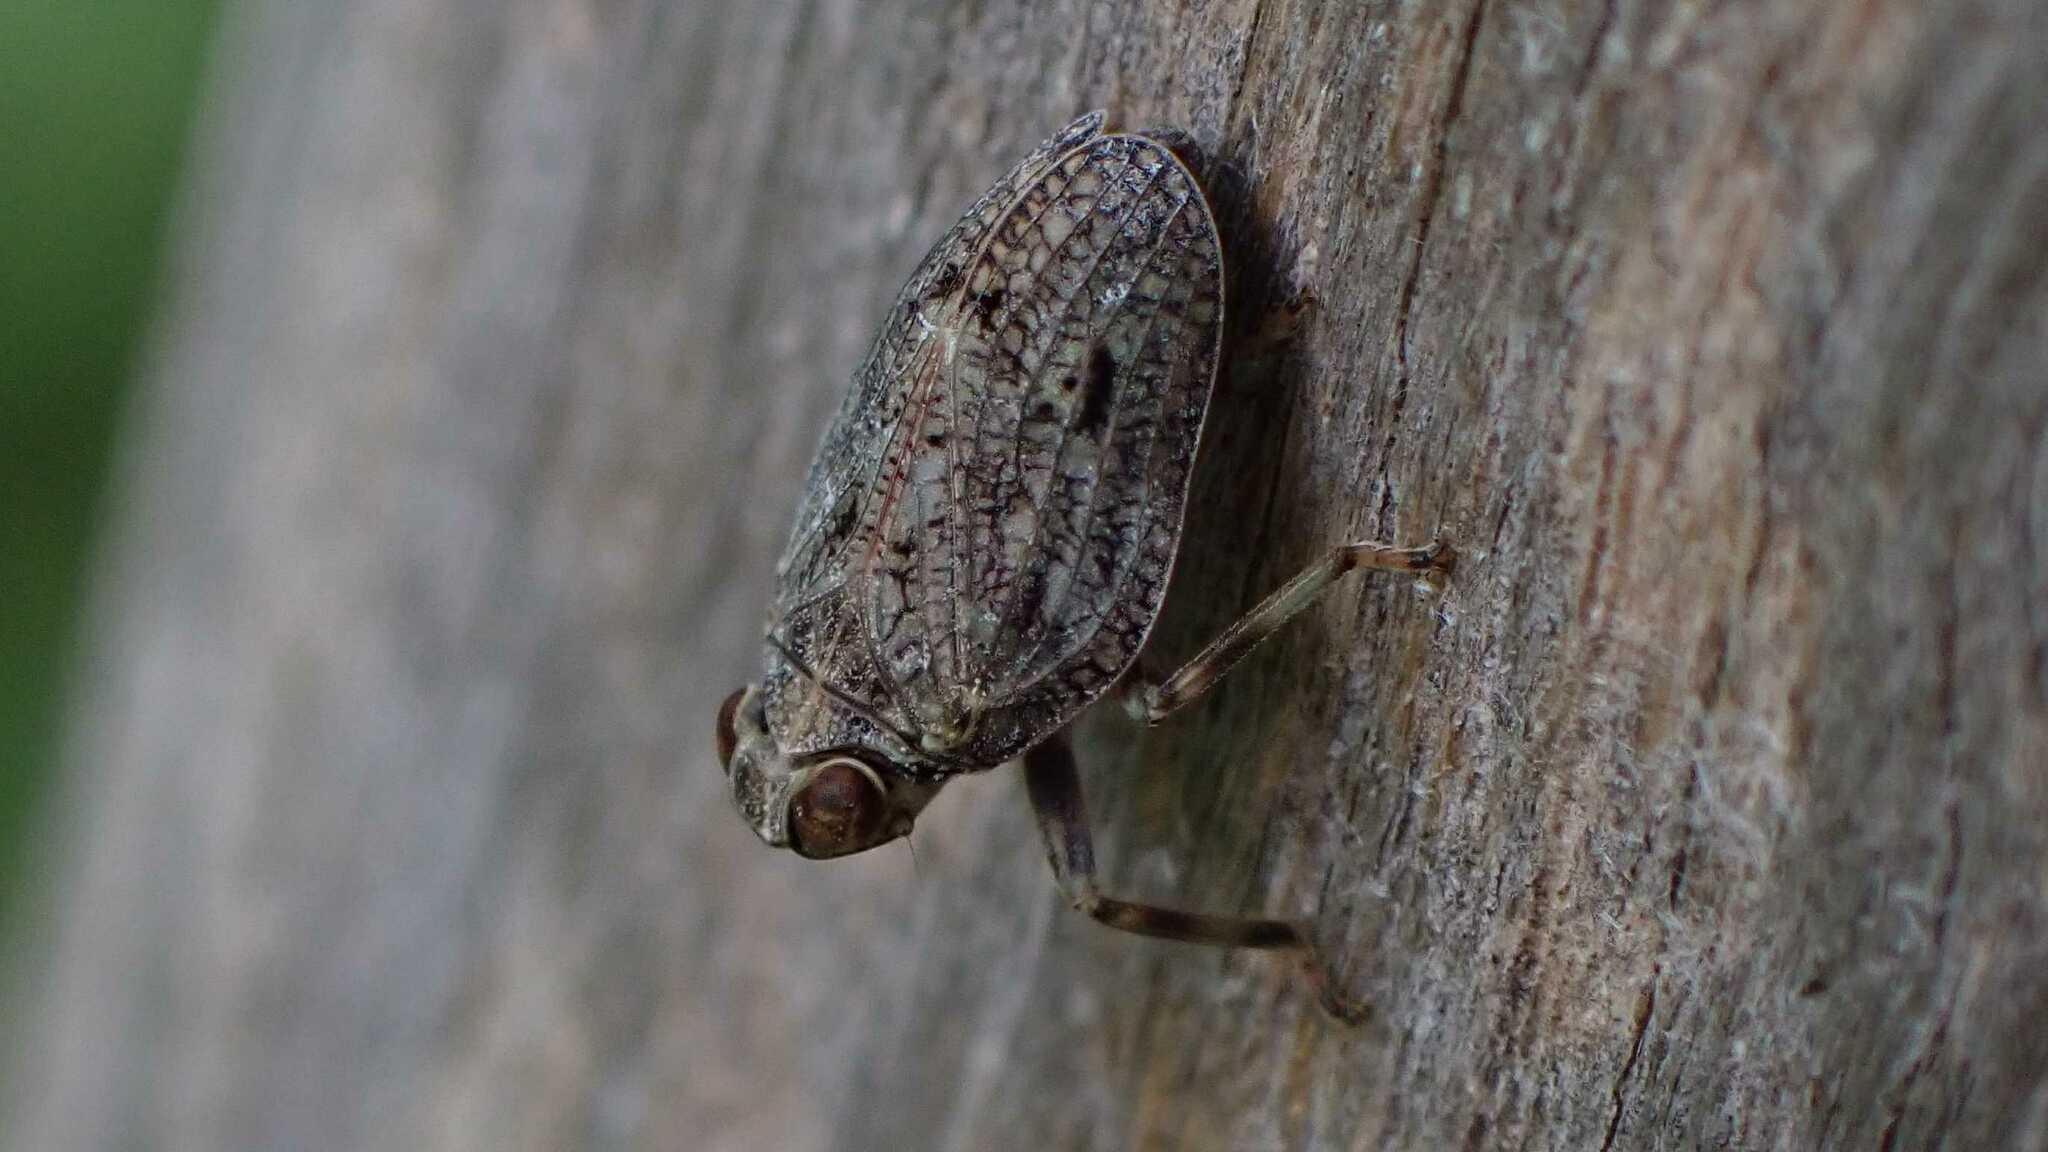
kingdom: Animalia
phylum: Arthropoda
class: Insecta
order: Hemiptera
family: Issidae
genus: Issus
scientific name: Issus coleoptratus
